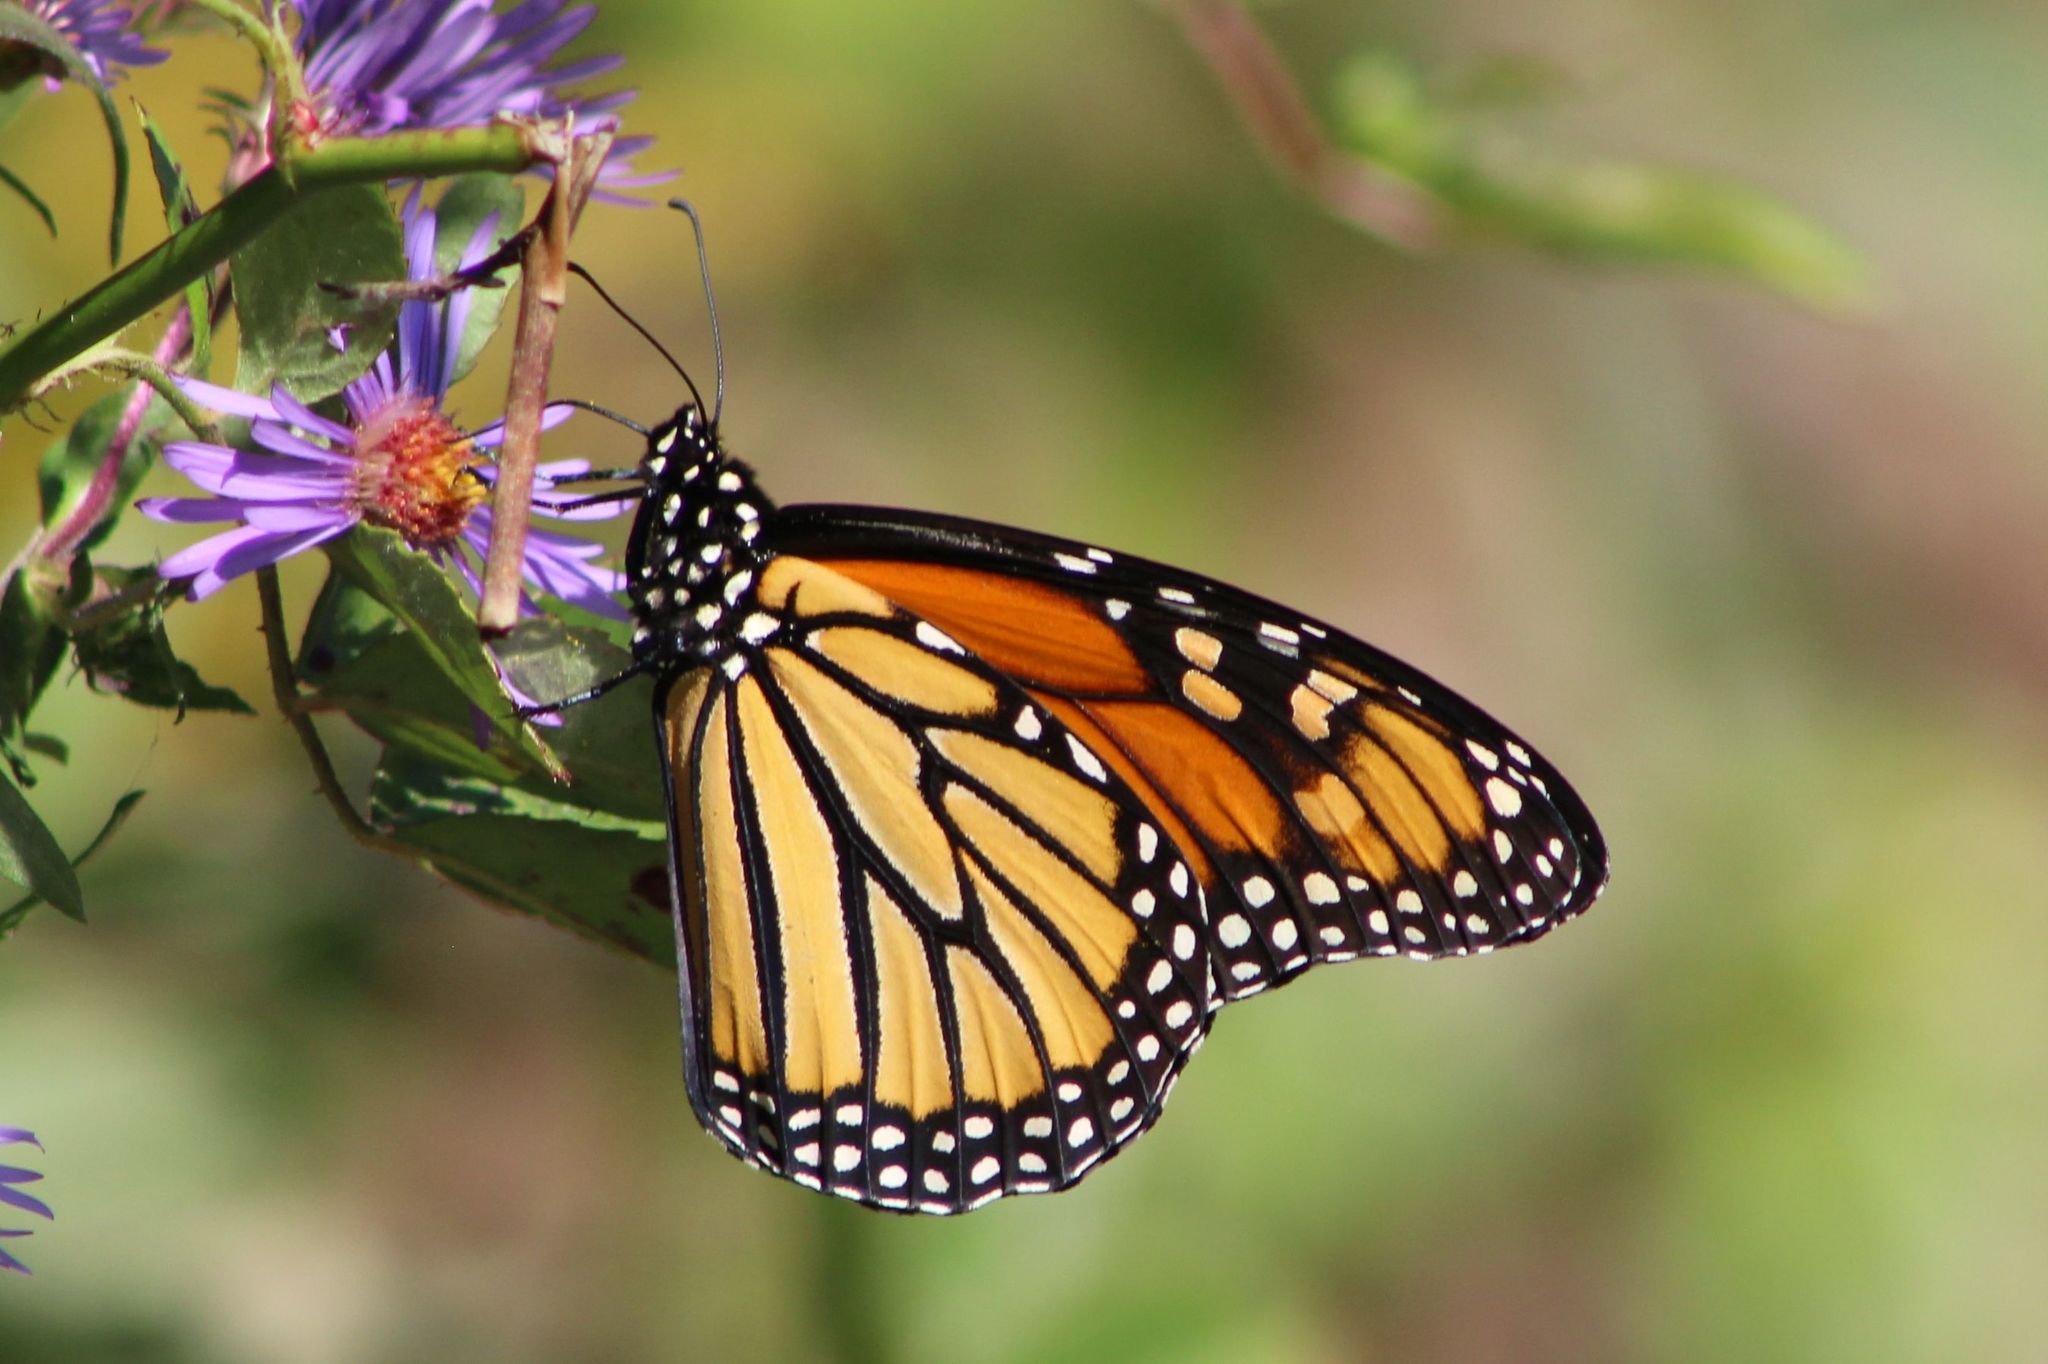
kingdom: Animalia
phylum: Arthropoda
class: Insecta
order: Lepidoptera
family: Nymphalidae
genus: Danaus
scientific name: Danaus plexippus
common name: Monarch
